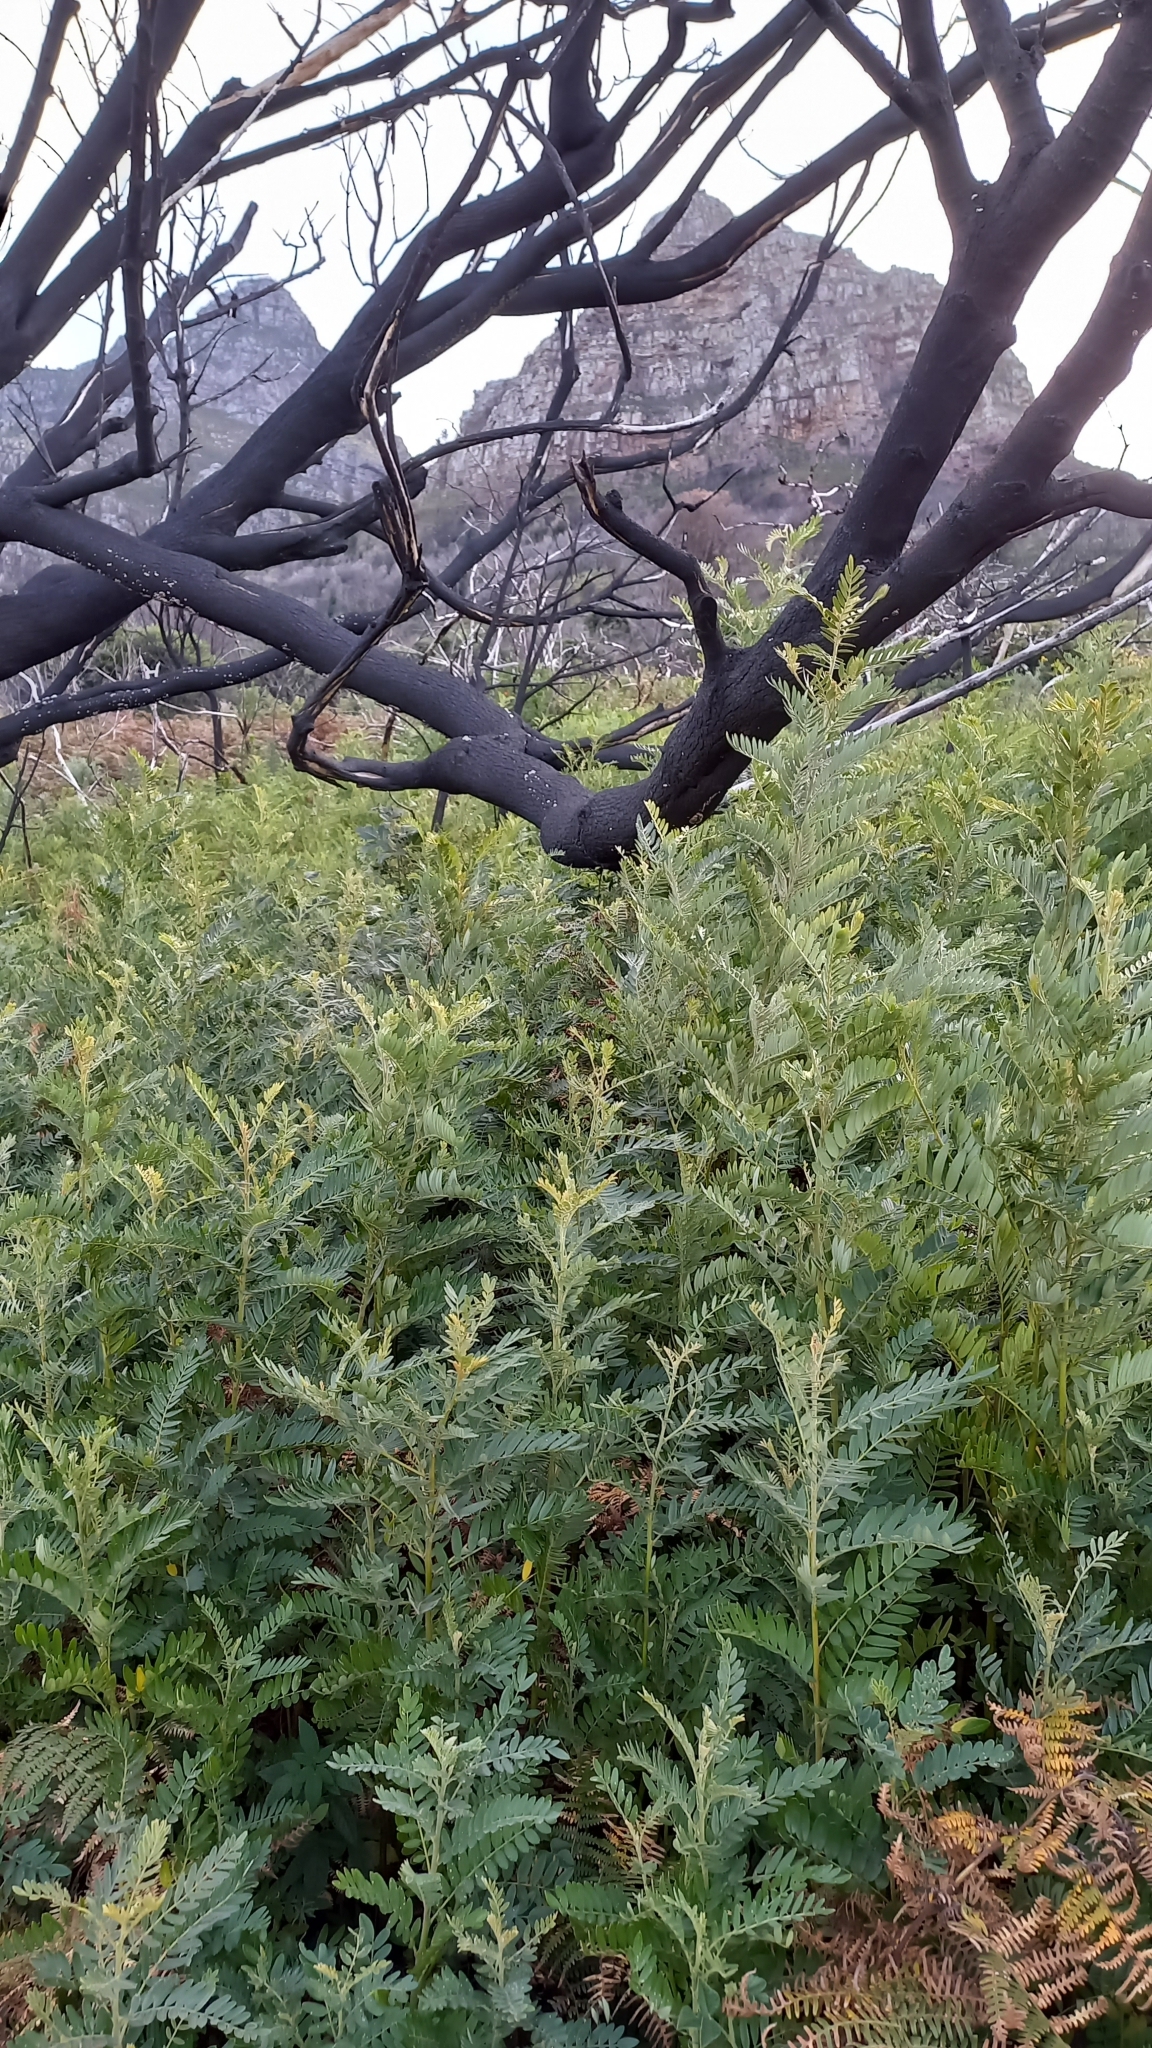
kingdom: Plantae
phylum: Tracheophyta
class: Magnoliopsida
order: Fabales
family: Fabaceae
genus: Virgilia
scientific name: Virgilia oroboides
